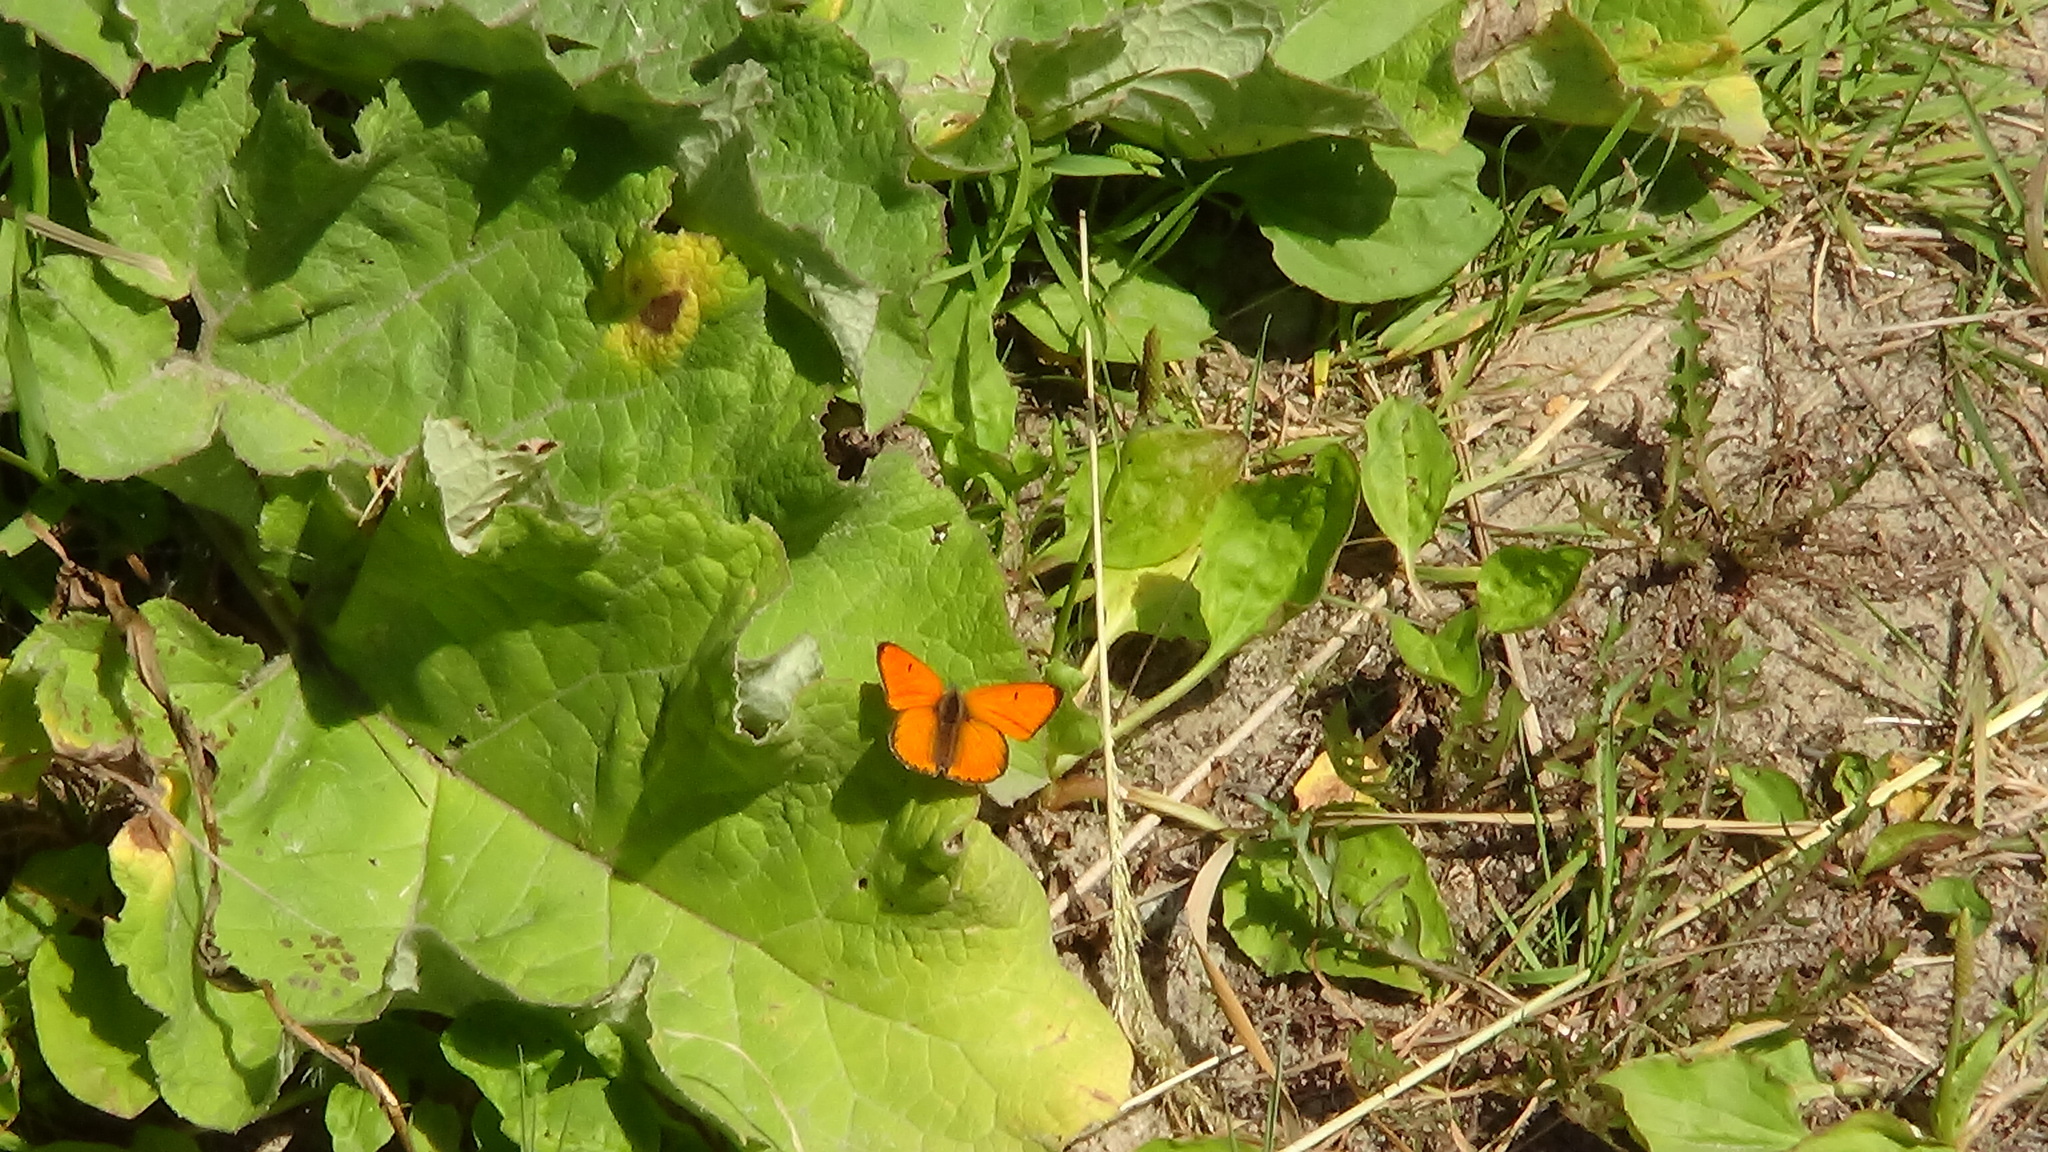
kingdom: Animalia
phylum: Arthropoda
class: Insecta
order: Lepidoptera
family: Lycaenidae
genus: Lycaena
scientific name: Lycaena dispar
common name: Large copper
